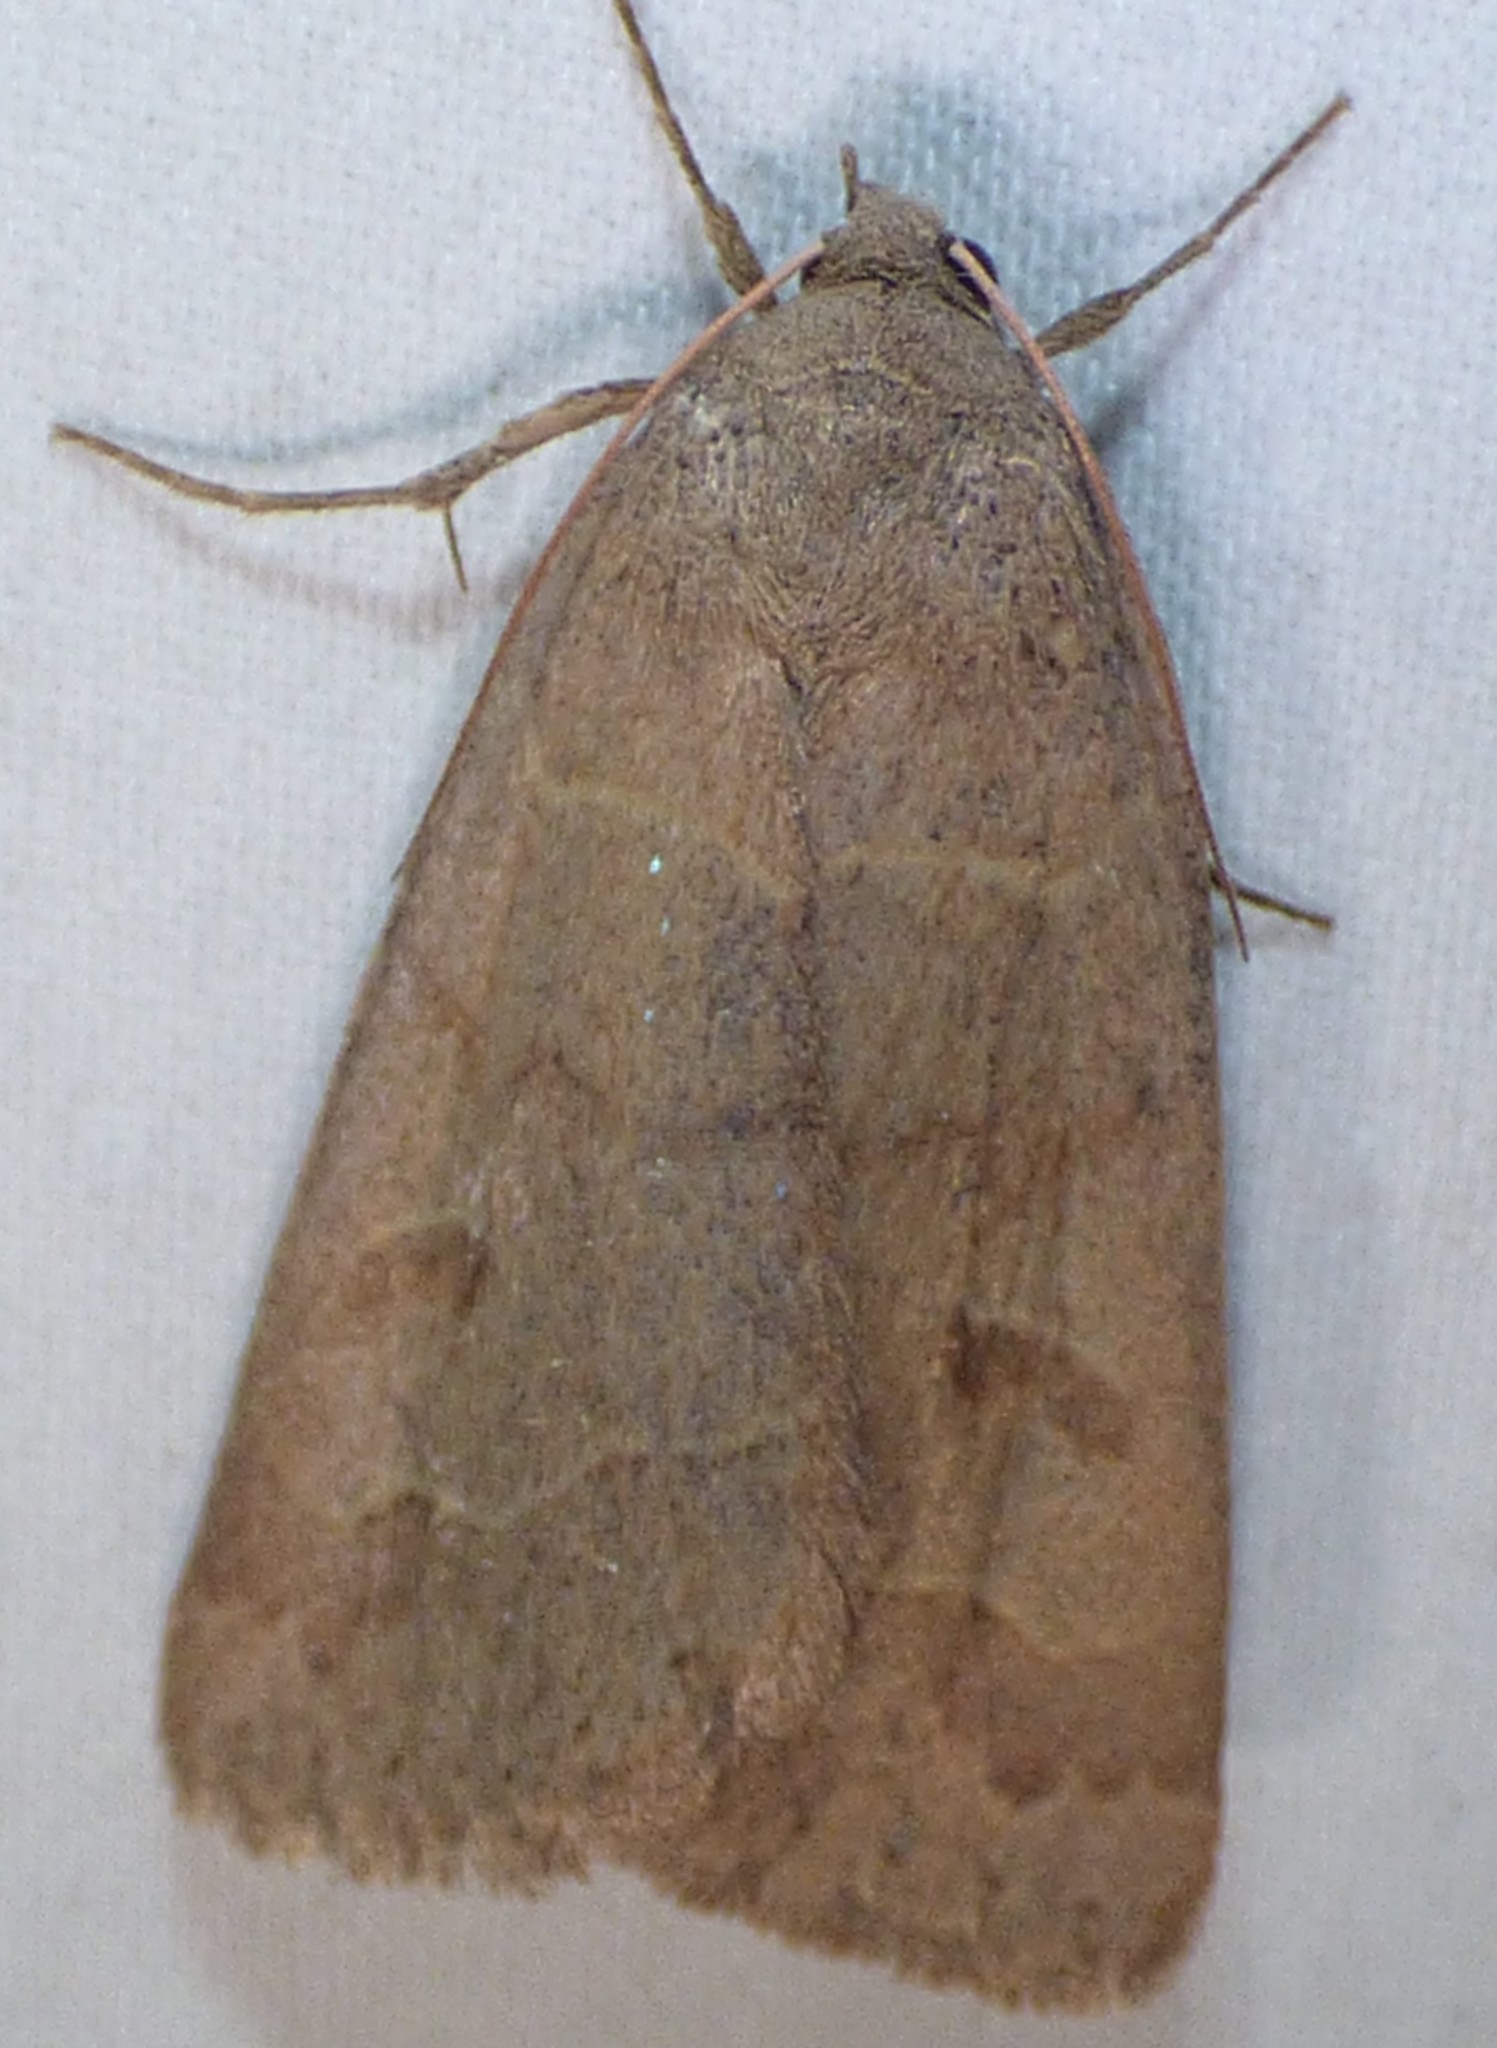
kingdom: Animalia
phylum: Arthropoda
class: Insecta
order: Lepidoptera
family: Erebidae
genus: Phoberia
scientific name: Phoberia atomaris
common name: Common oak moth
